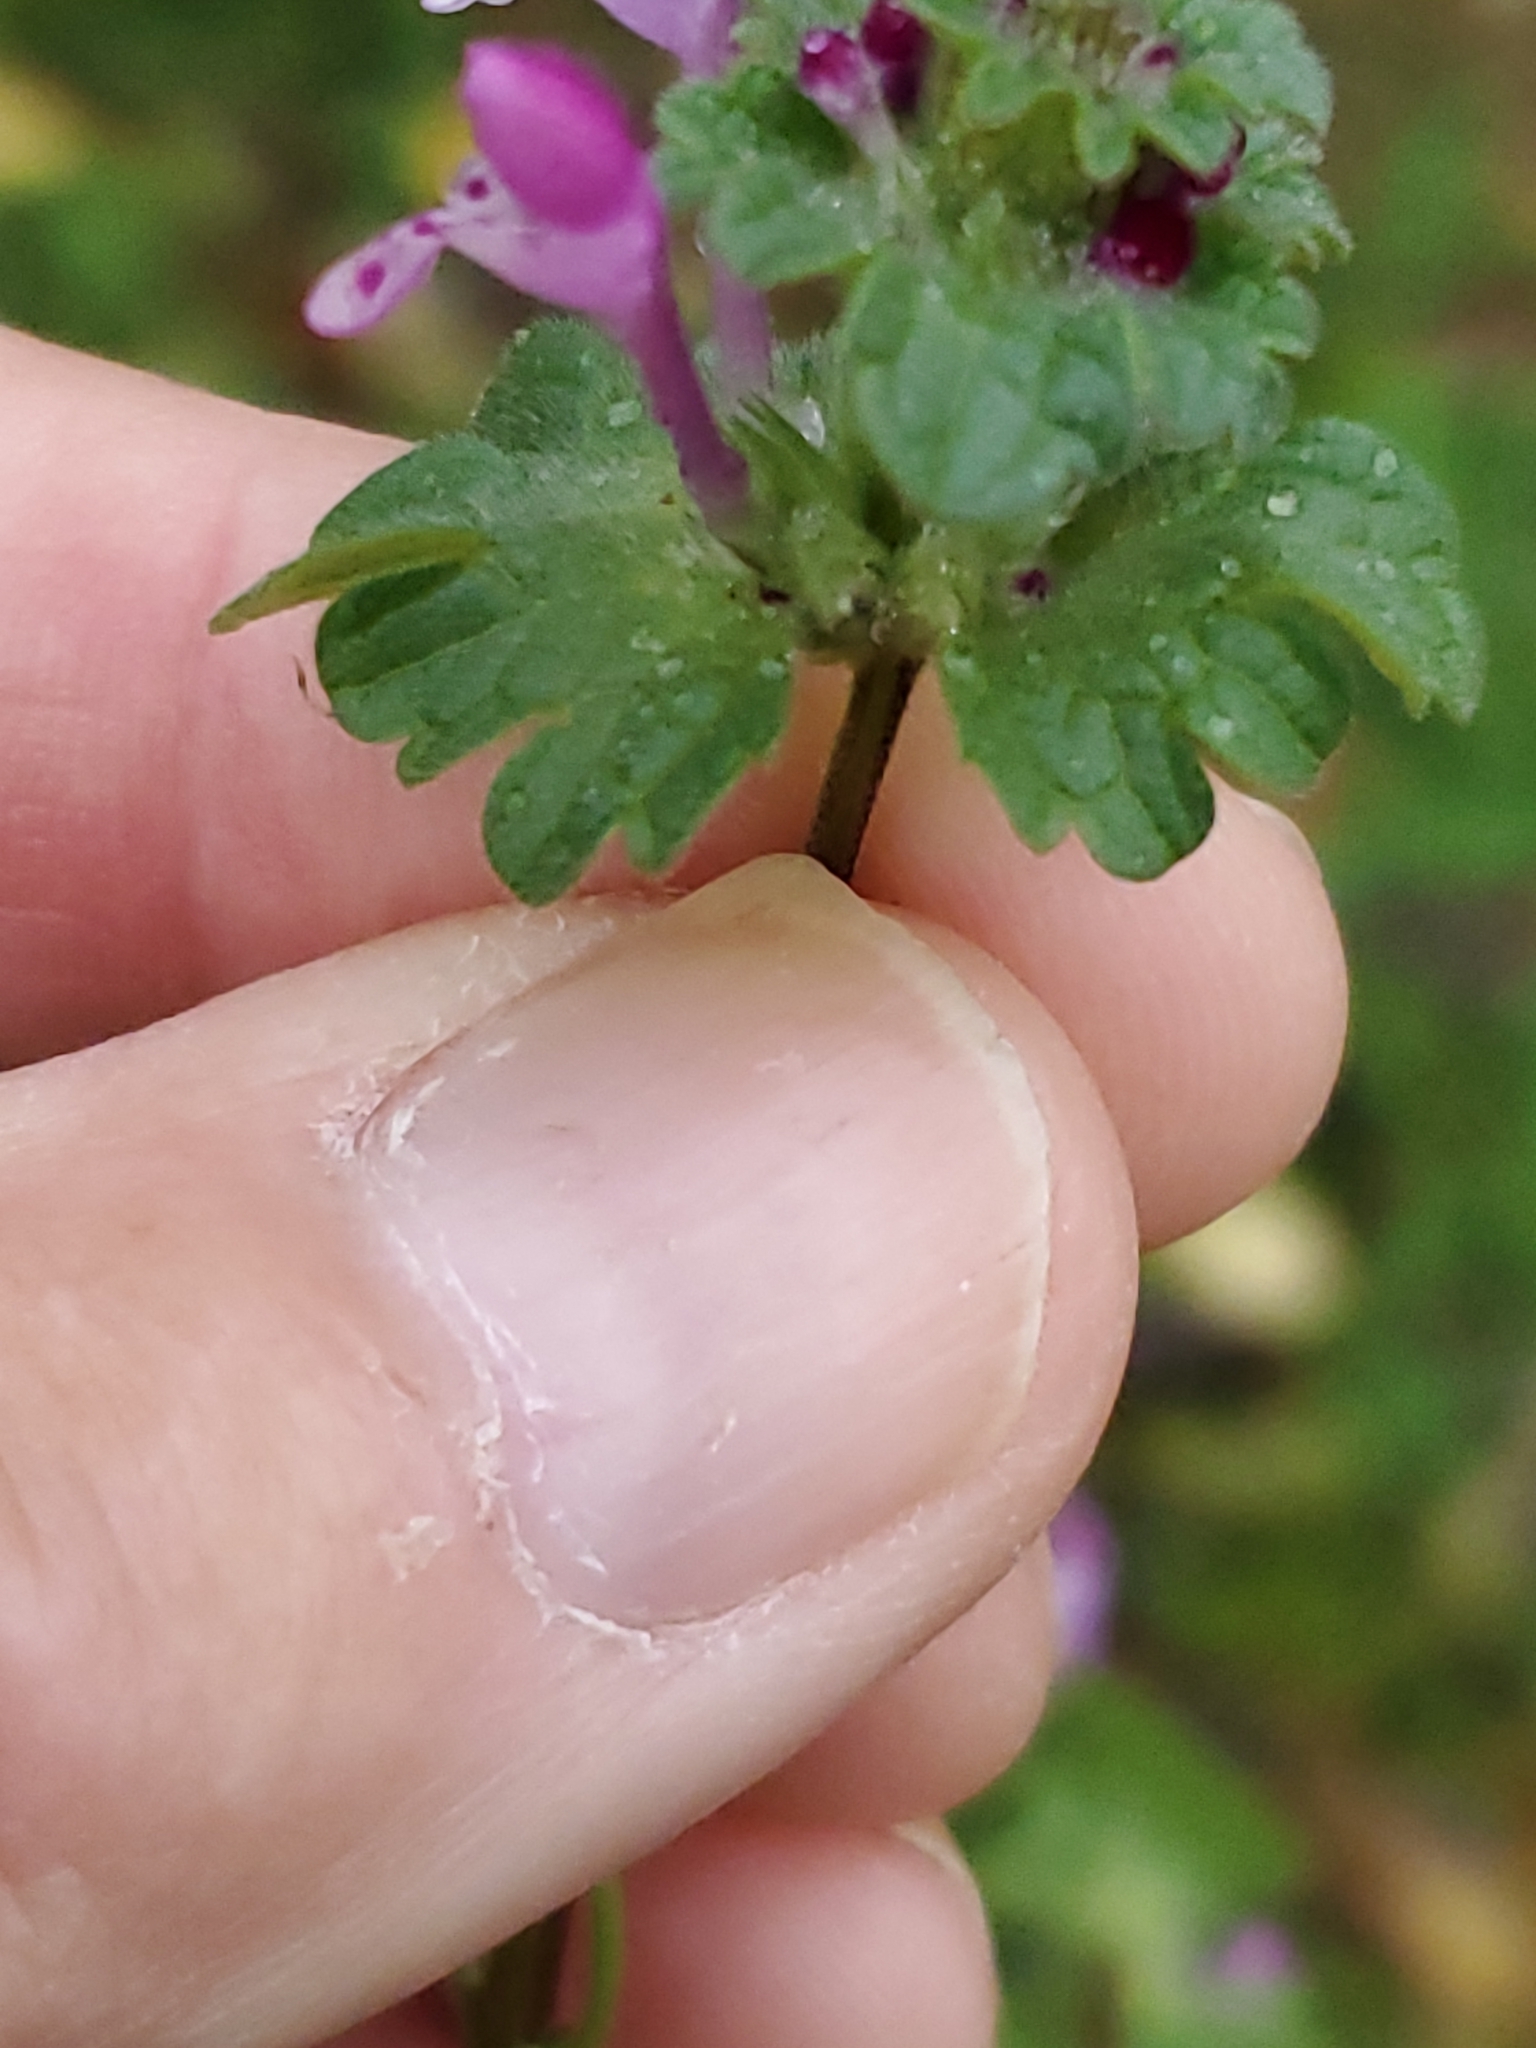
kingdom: Plantae
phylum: Tracheophyta
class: Magnoliopsida
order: Lamiales
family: Lamiaceae
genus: Lamium
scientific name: Lamium amplexicaule
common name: Henbit dead-nettle
